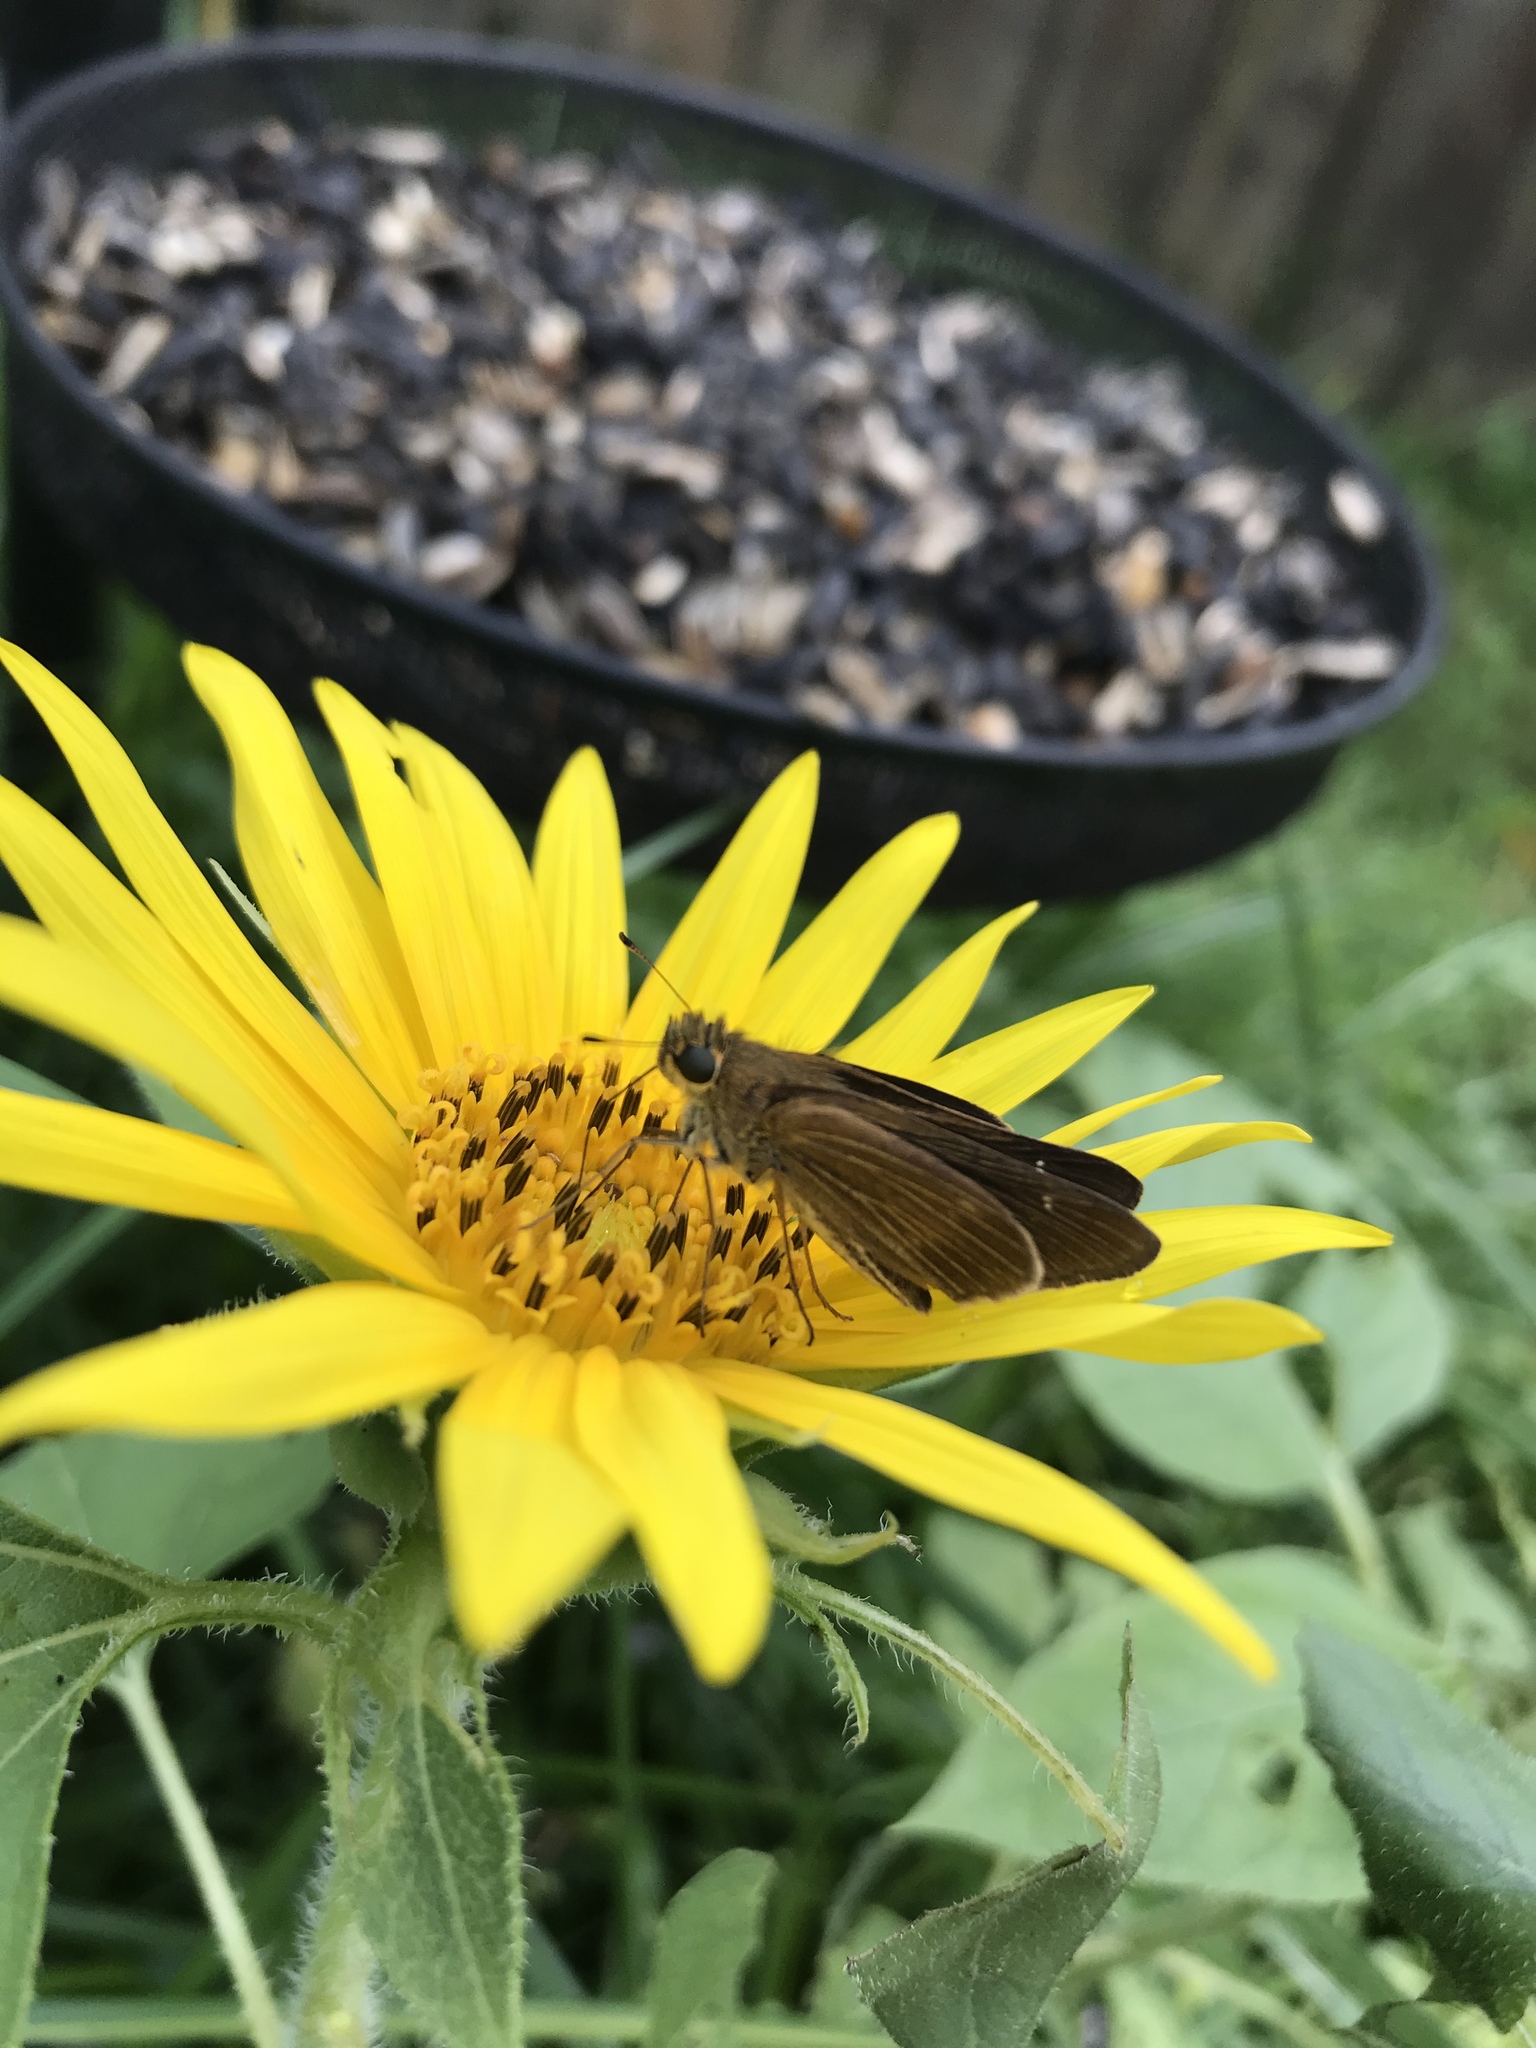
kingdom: Animalia
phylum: Arthropoda
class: Insecta
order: Lepidoptera
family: Hesperiidae
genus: Panoquina
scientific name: Panoquina ocola
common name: Ocola skipper
